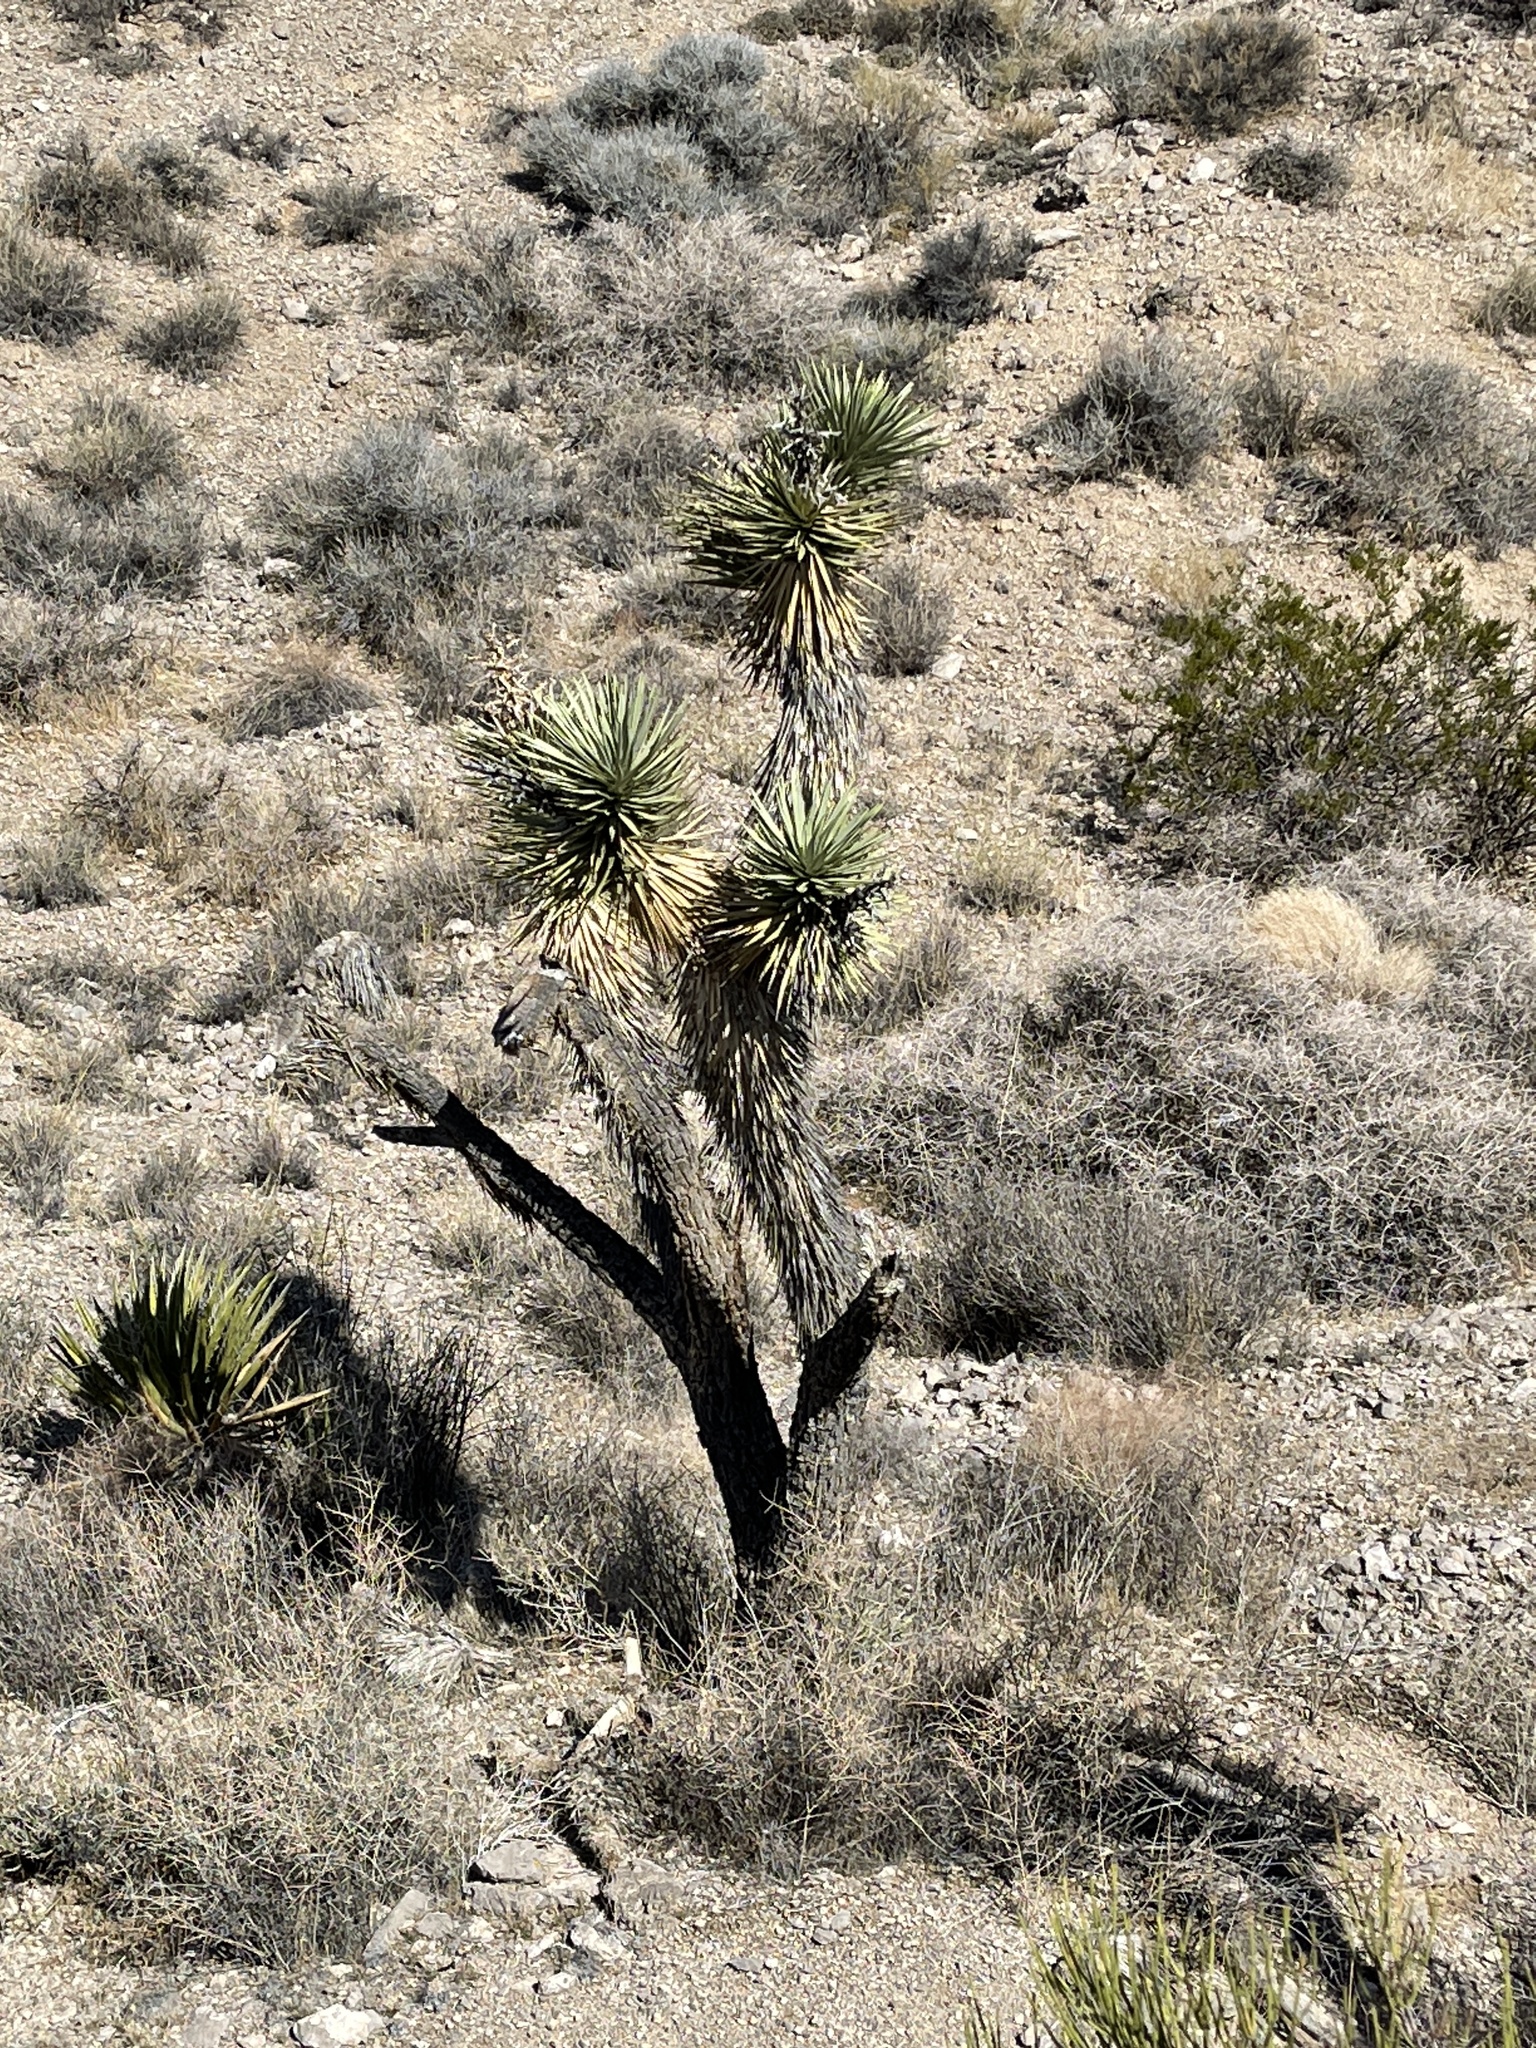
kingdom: Plantae
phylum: Tracheophyta
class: Liliopsida
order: Asparagales
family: Asparagaceae
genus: Yucca
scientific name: Yucca brevifolia
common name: Joshua tree
